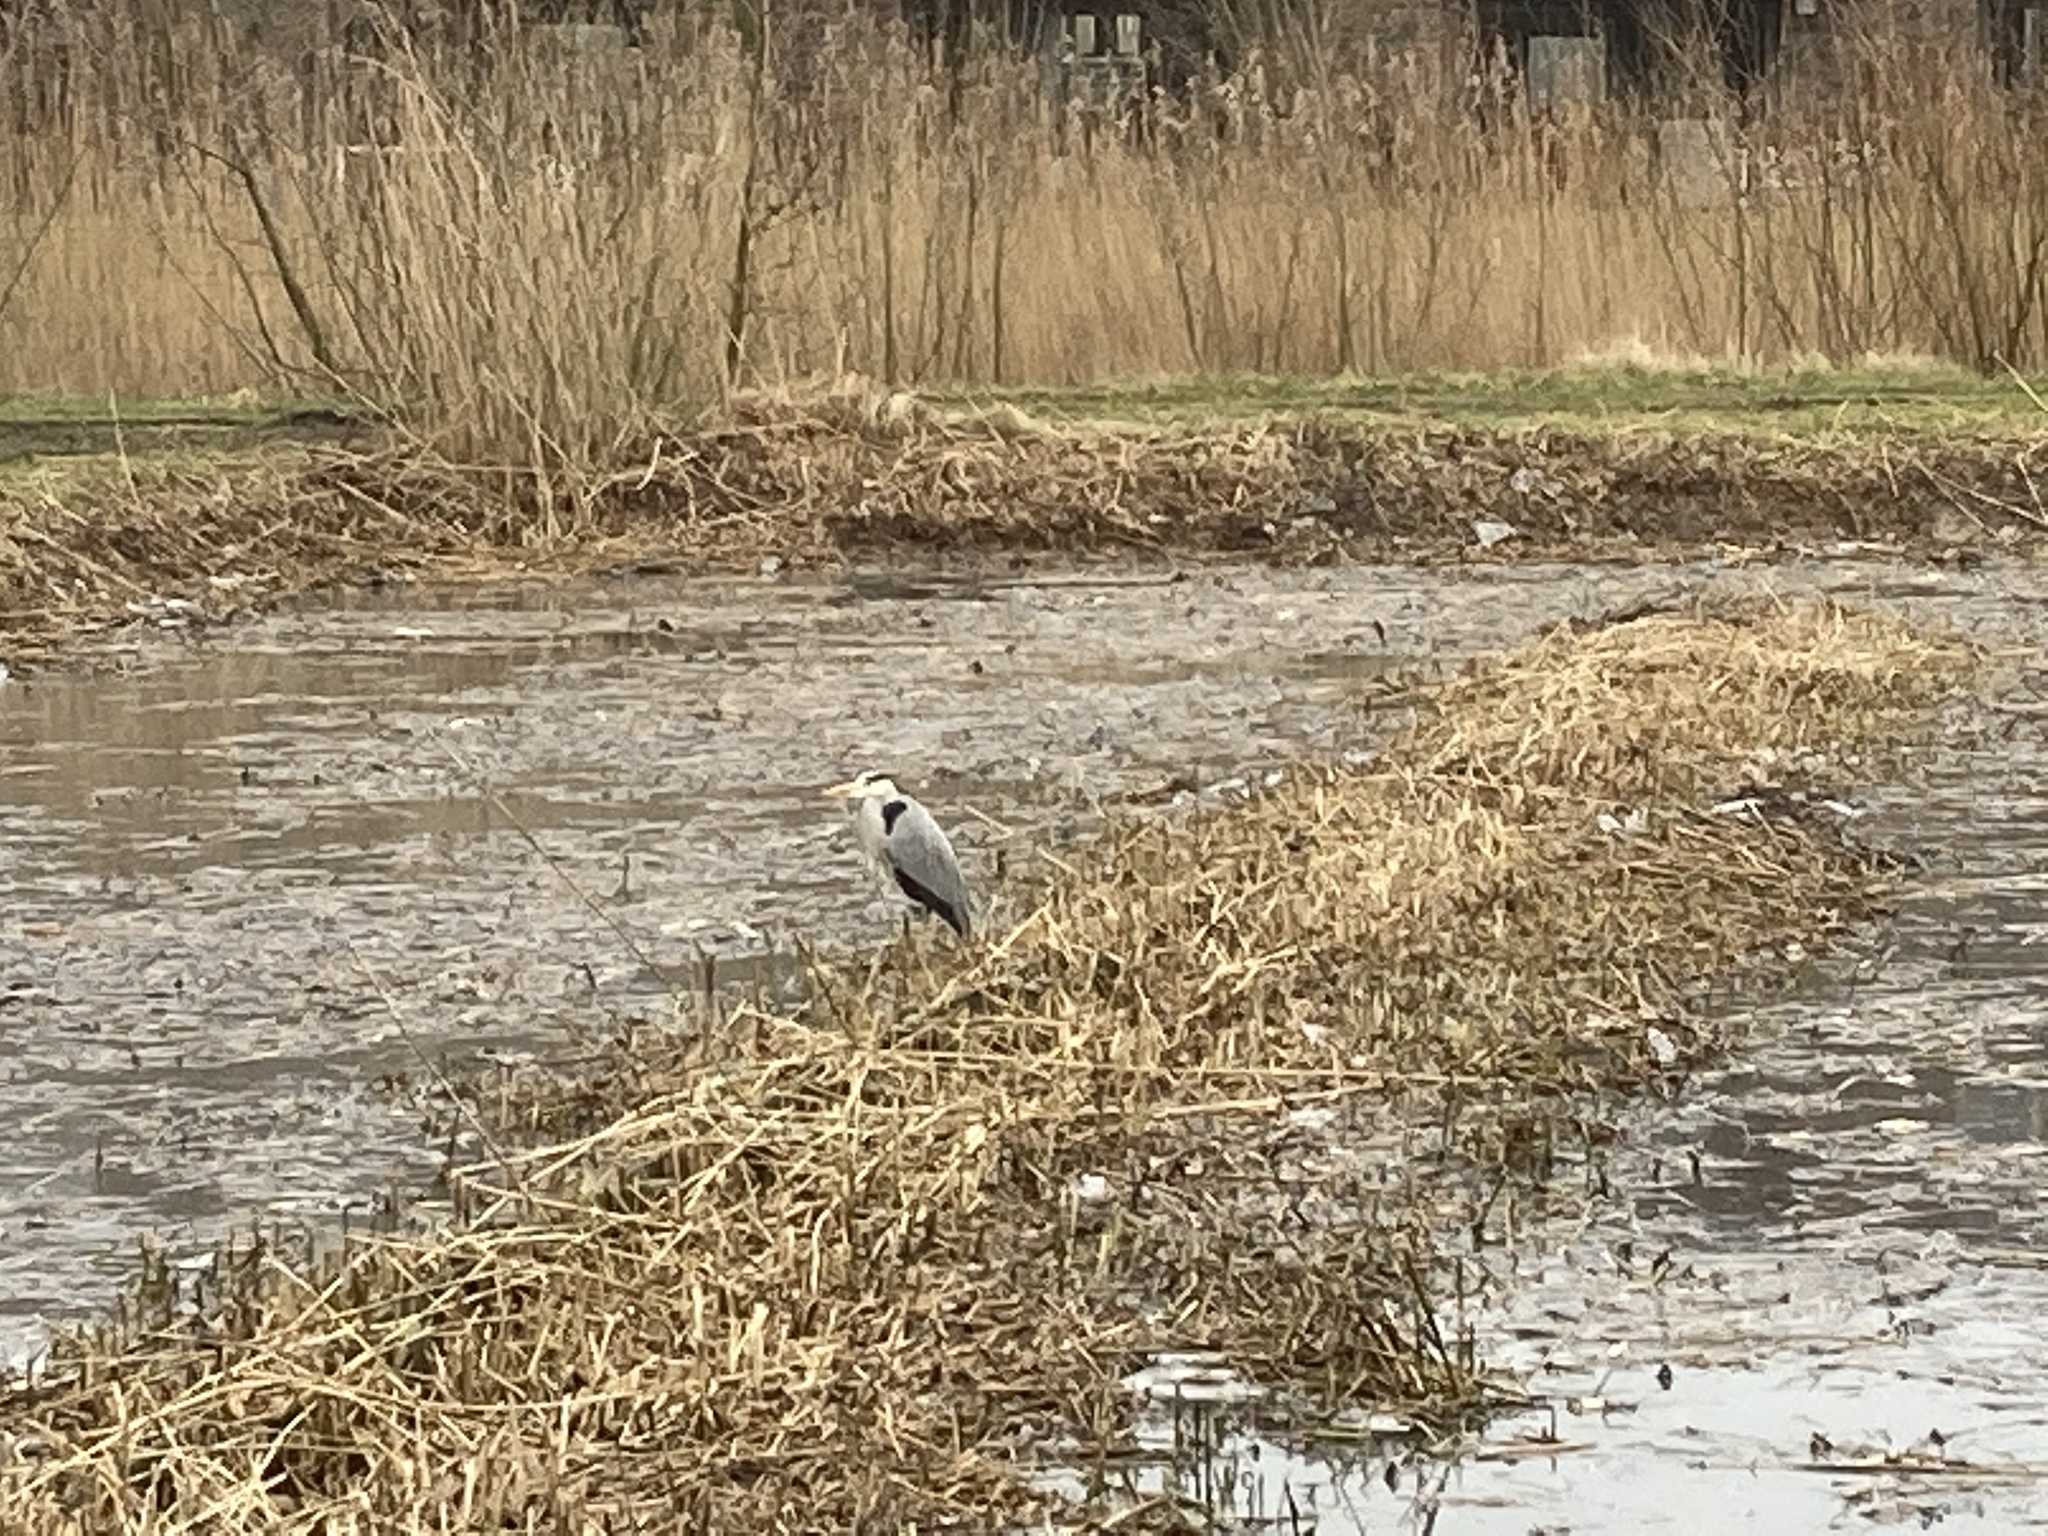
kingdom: Animalia
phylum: Chordata
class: Aves
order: Pelecaniformes
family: Ardeidae
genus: Ardea
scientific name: Ardea cinerea
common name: Grey heron
